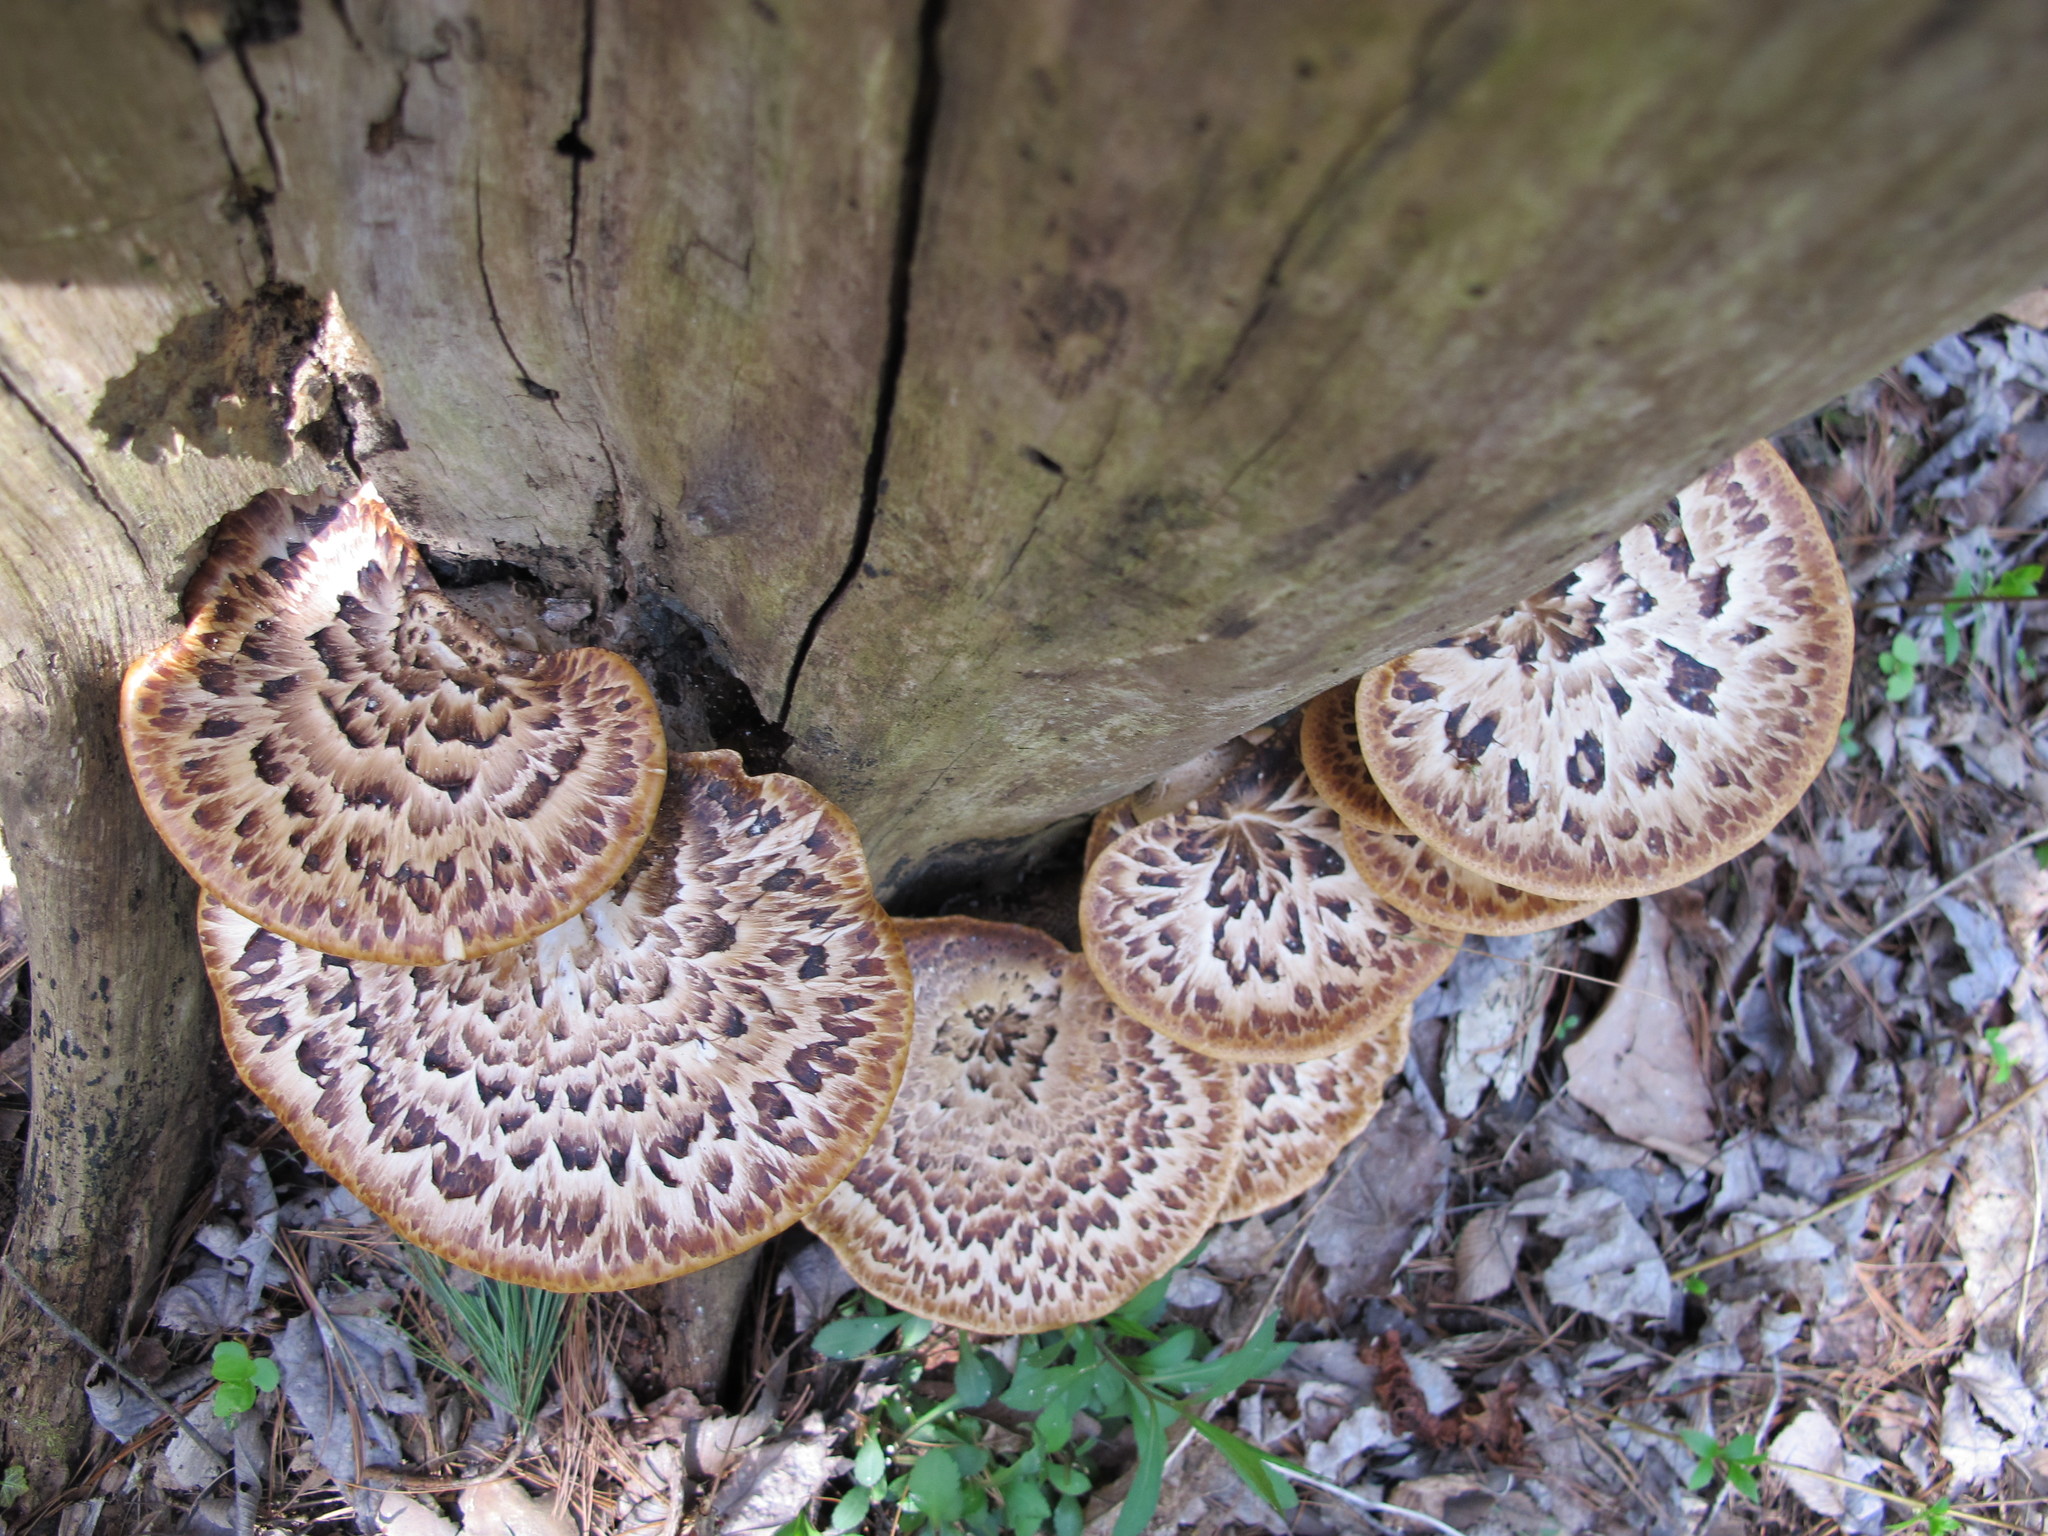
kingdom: Fungi
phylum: Basidiomycota
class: Agaricomycetes
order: Polyporales
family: Polyporaceae
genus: Cerioporus
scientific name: Cerioporus squamosus
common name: Dryad's saddle
